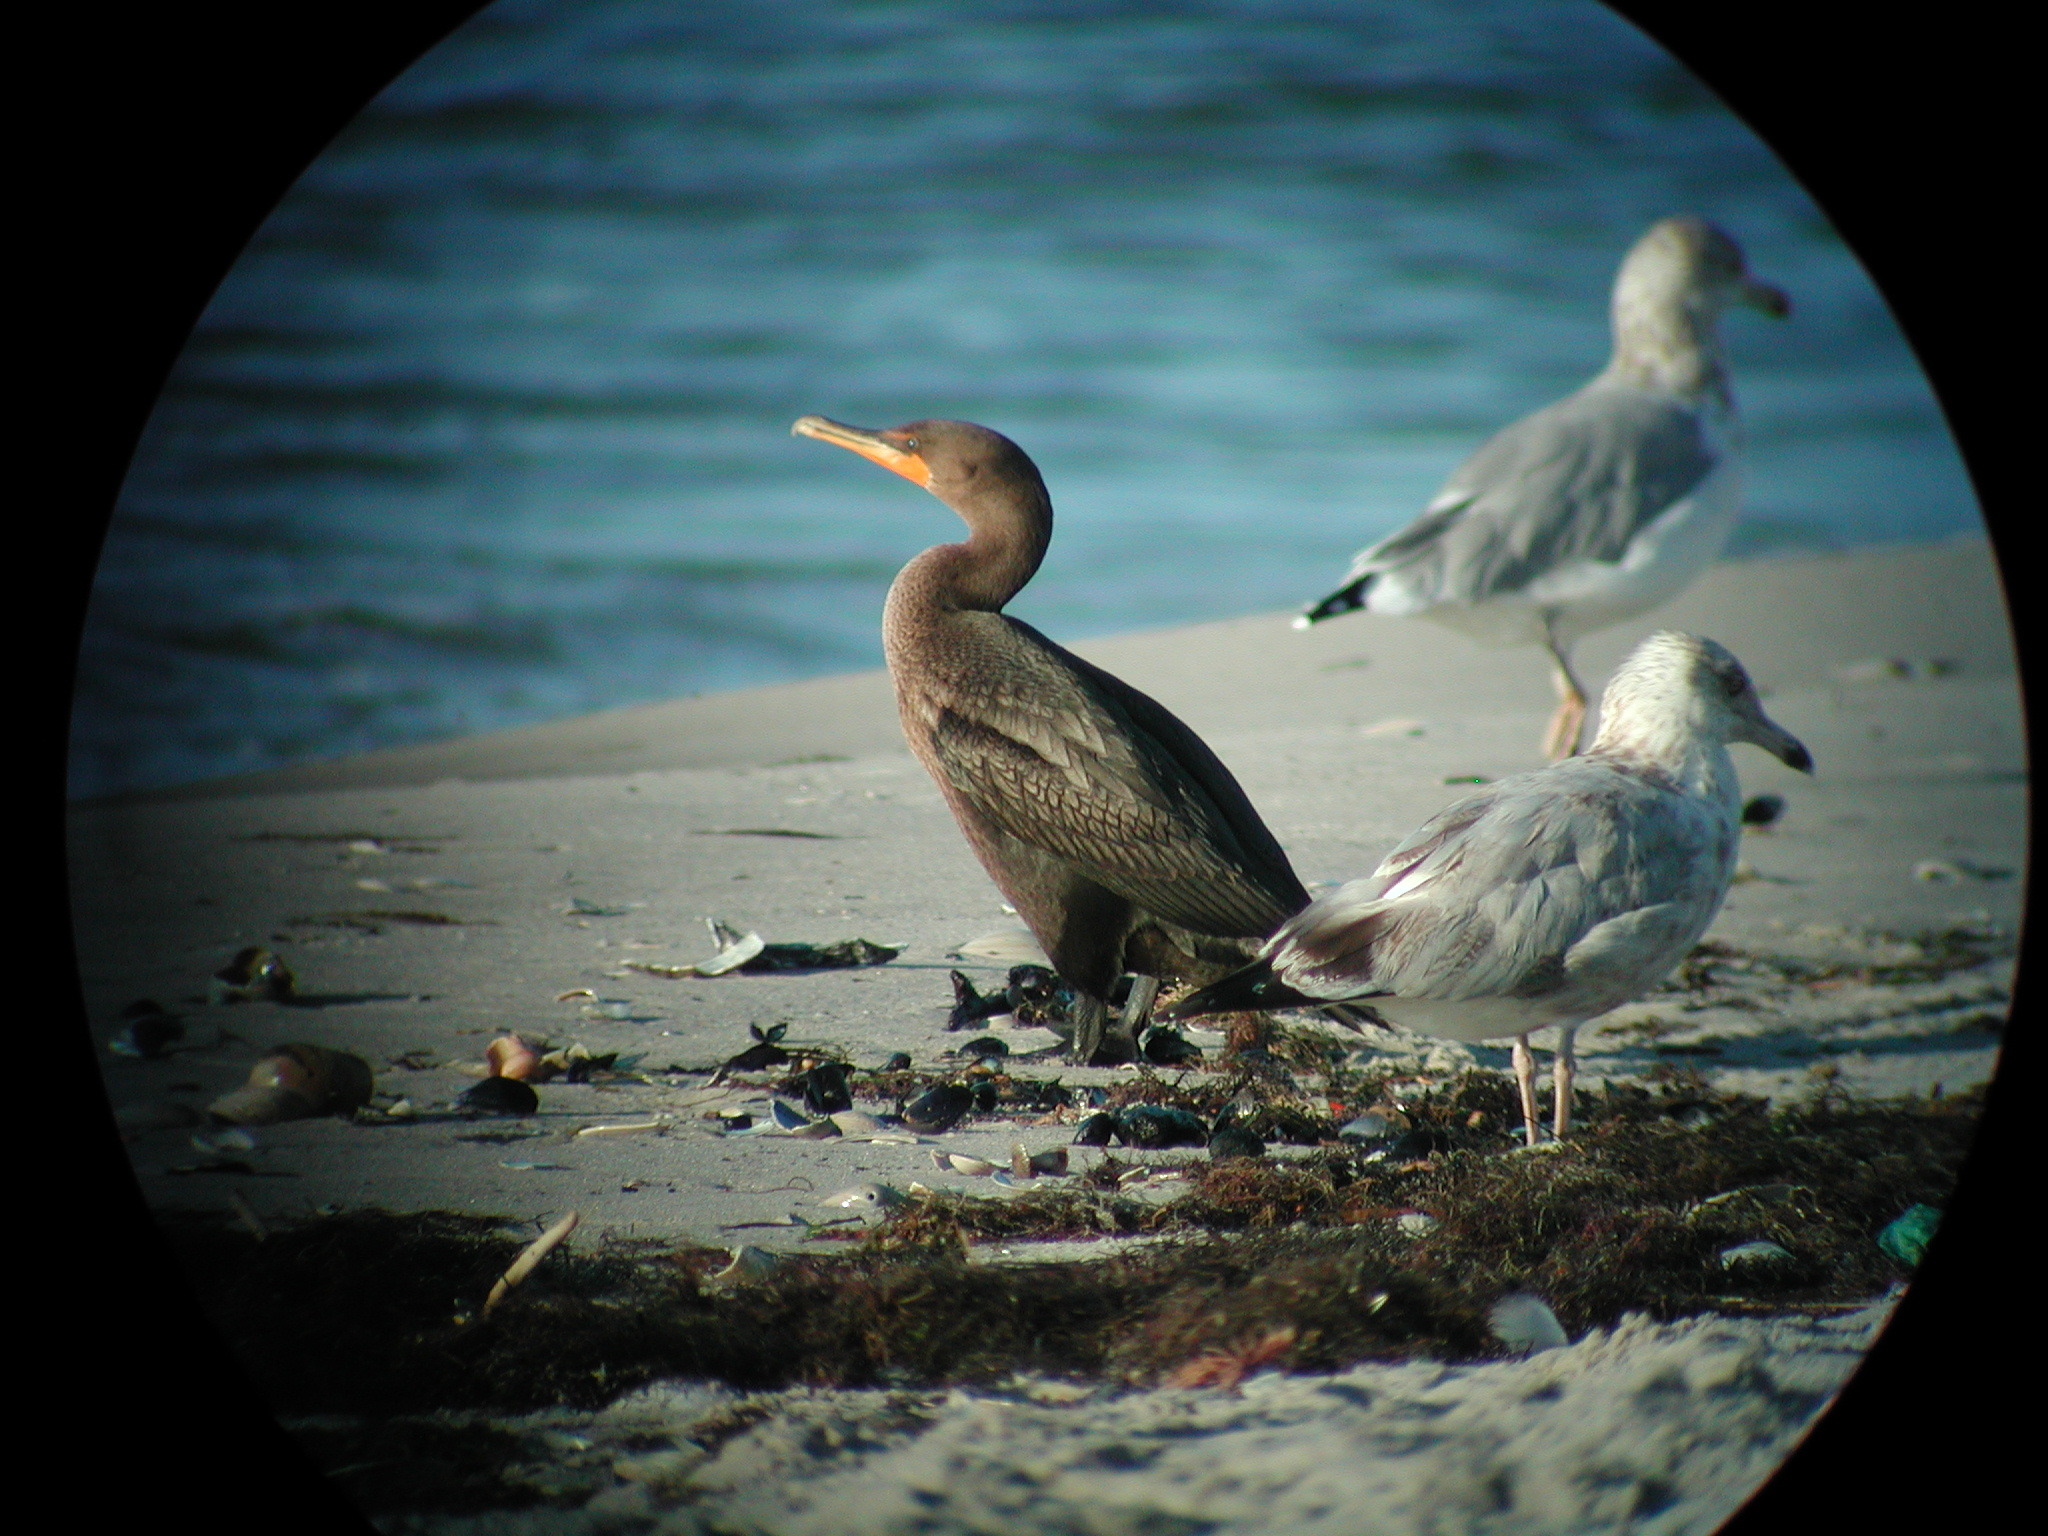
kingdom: Animalia
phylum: Chordata
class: Aves
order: Suliformes
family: Phalacrocoracidae
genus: Phalacrocorax
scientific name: Phalacrocorax auritus
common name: Double-crested cormorant
